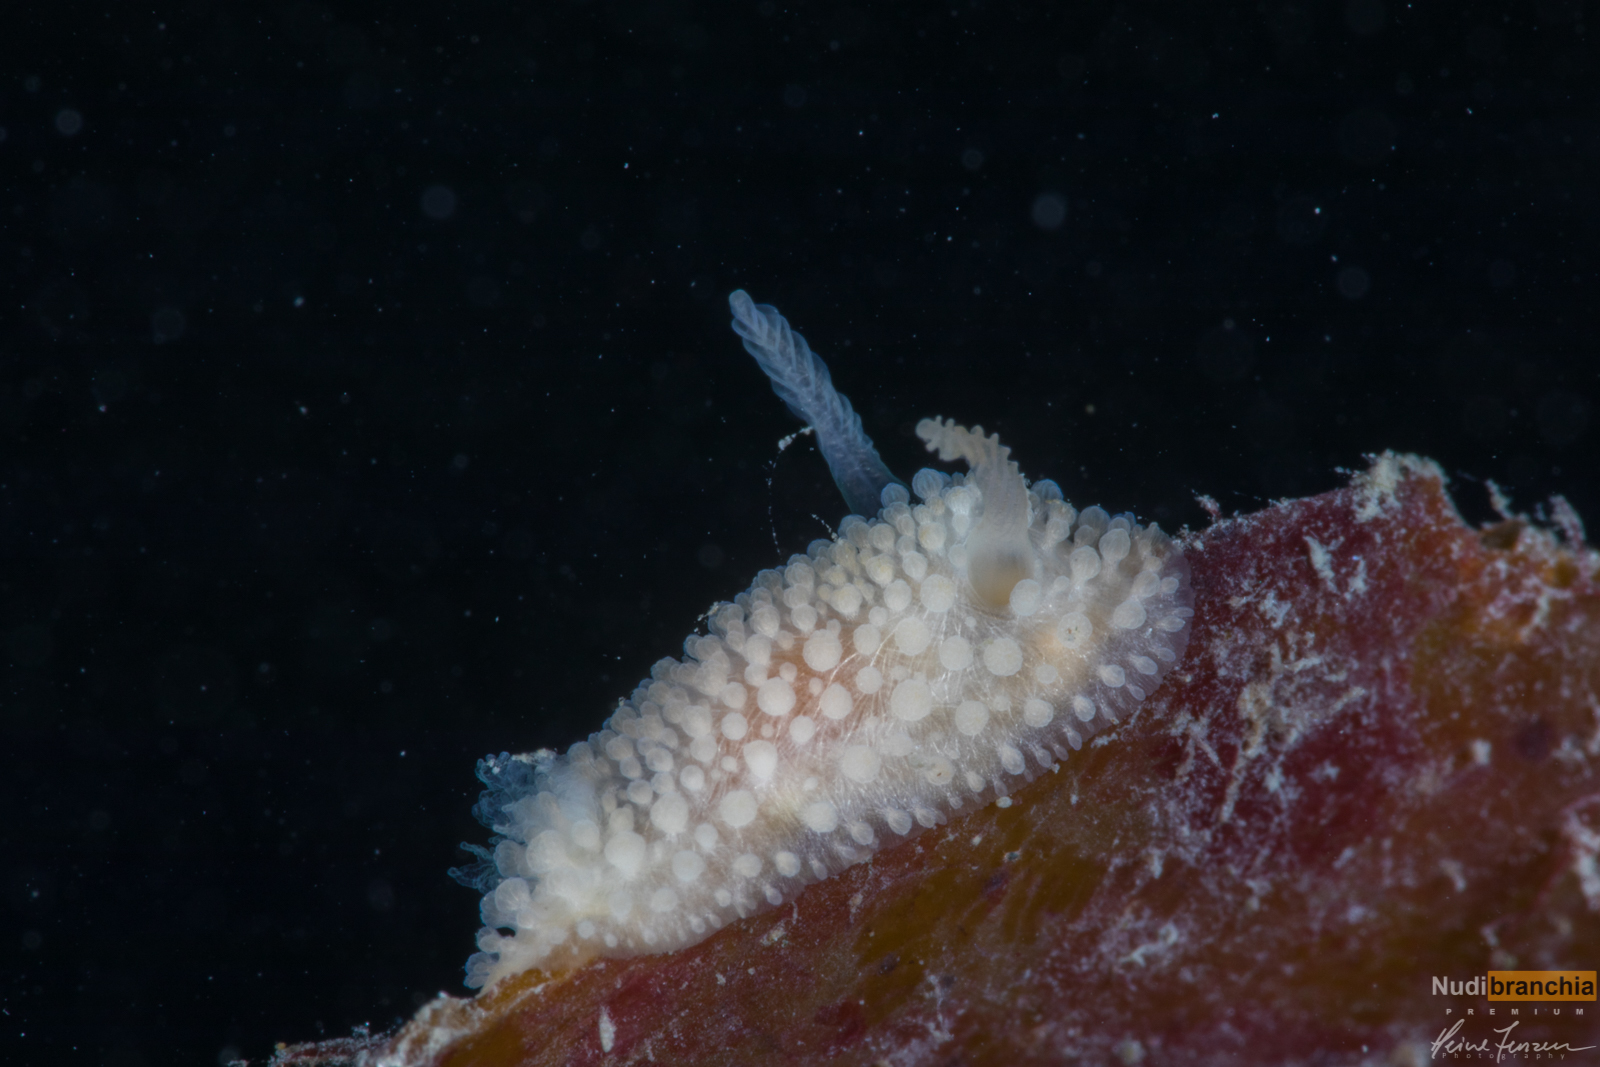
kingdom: Animalia
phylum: Mollusca
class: Gastropoda
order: Nudibranchia
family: Onchidorididae
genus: Onchidoris
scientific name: Onchidoris muricata
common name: Rough doris
